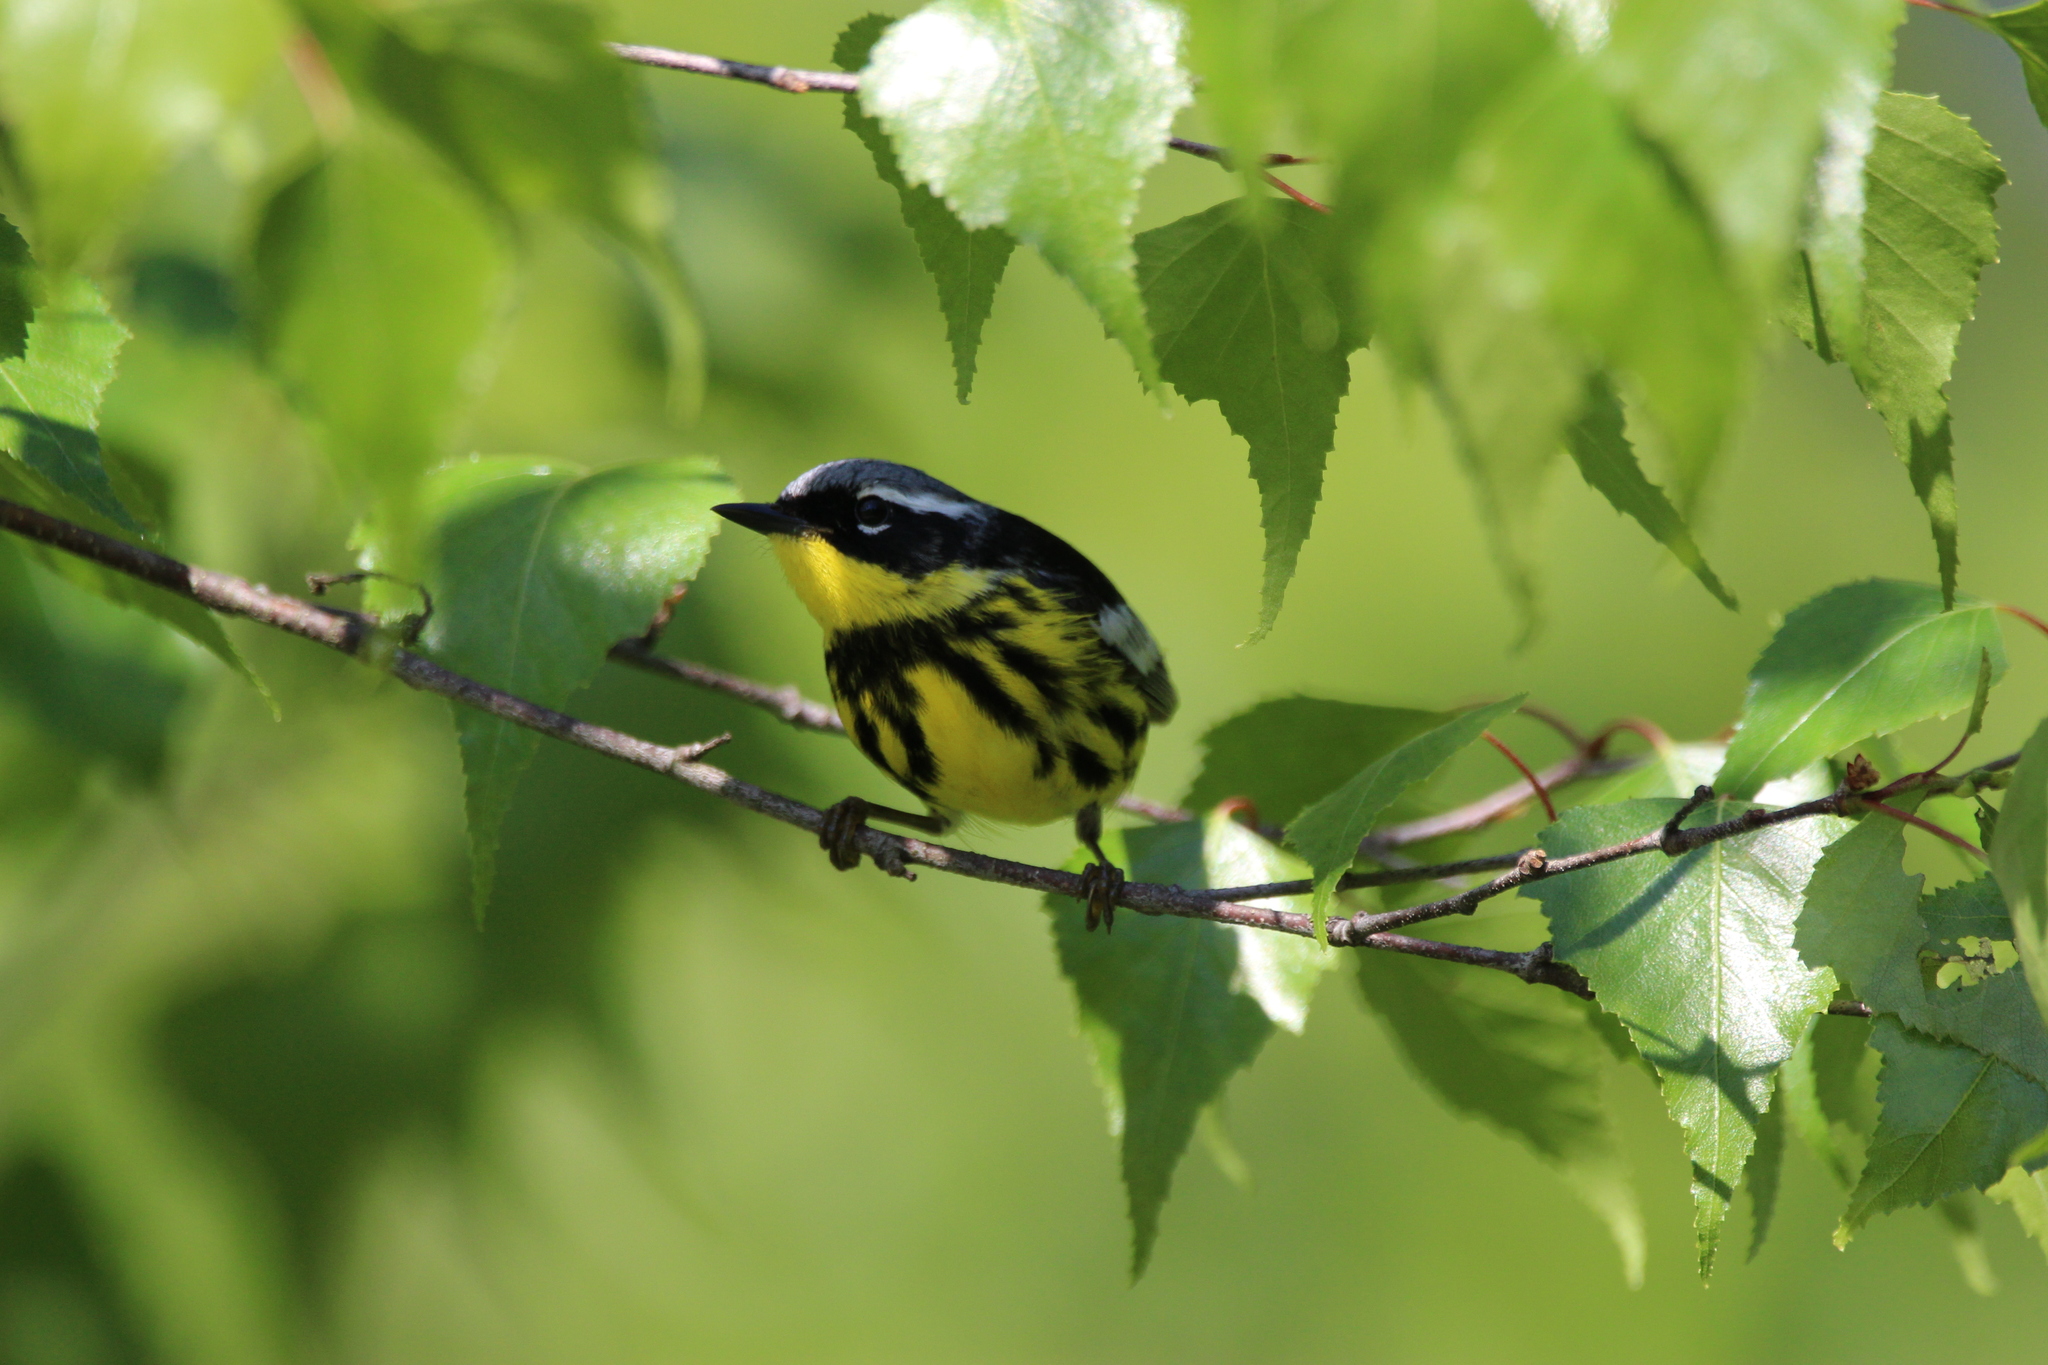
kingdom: Animalia
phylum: Chordata
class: Aves
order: Passeriformes
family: Parulidae
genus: Setophaga
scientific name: Setophaga magnolia
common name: Magnolia warbler
